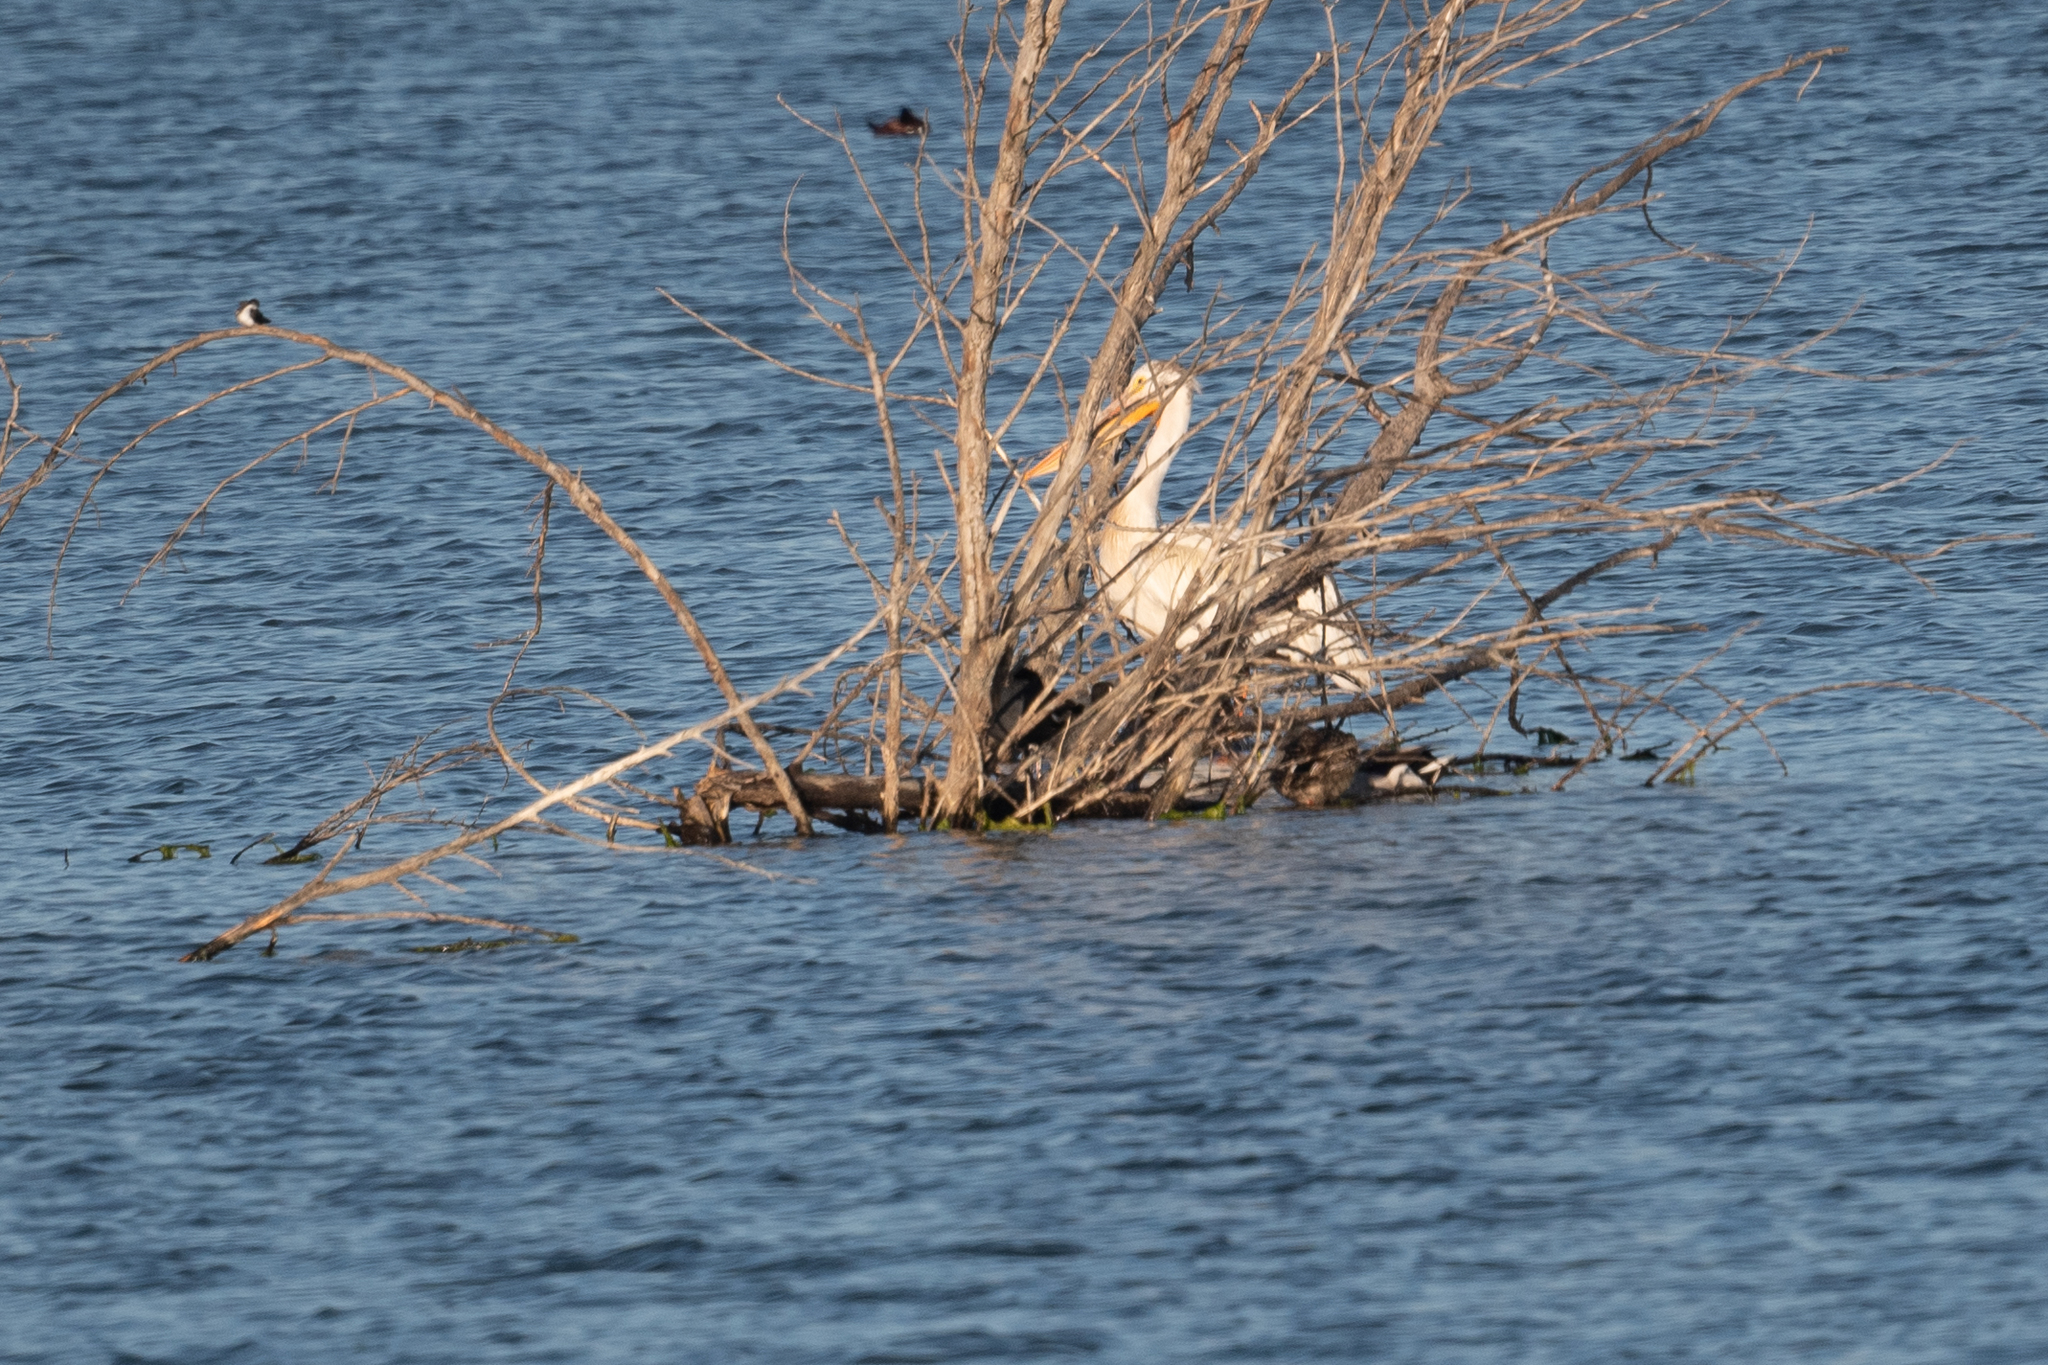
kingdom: Animalia
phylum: Chordata
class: Aves
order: Pelecaniformes
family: Pelecanidae
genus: Pelecanus
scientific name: Pelecanus erythrorhynchos
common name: American white pelican
